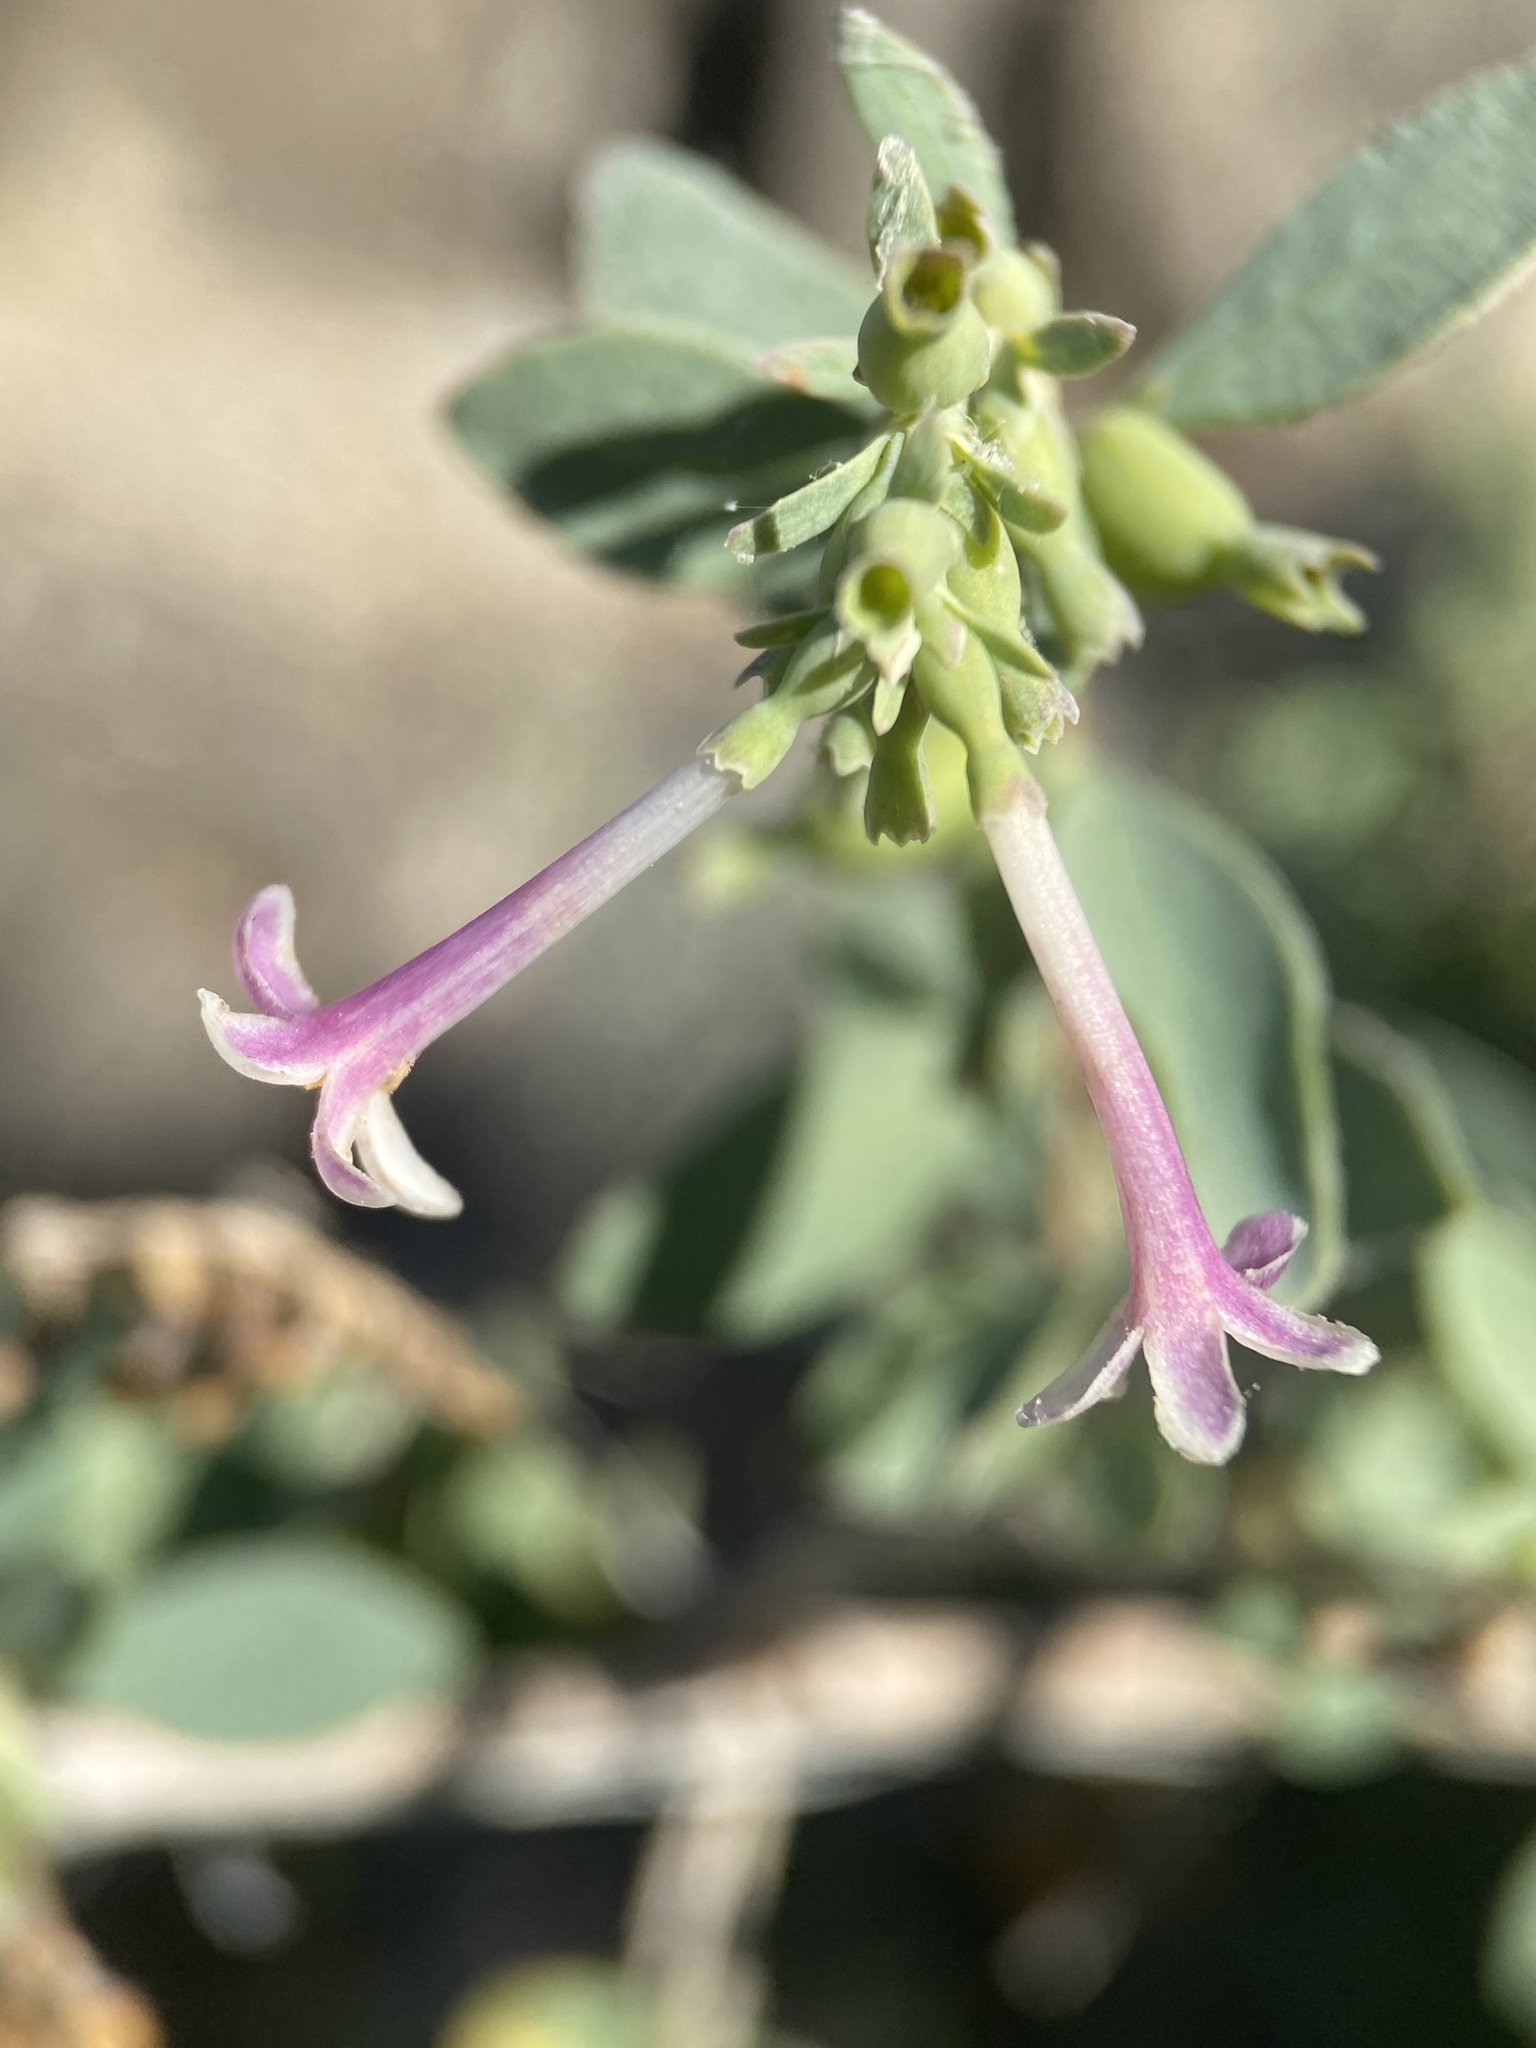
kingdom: Plantae
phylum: Tracheophyta
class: Magnoliopsida
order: Dipsacales
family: Caprifoliaceae
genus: Symphoricarpos
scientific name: Symphoricarpos longiflorus
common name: Fragrant snowberry
